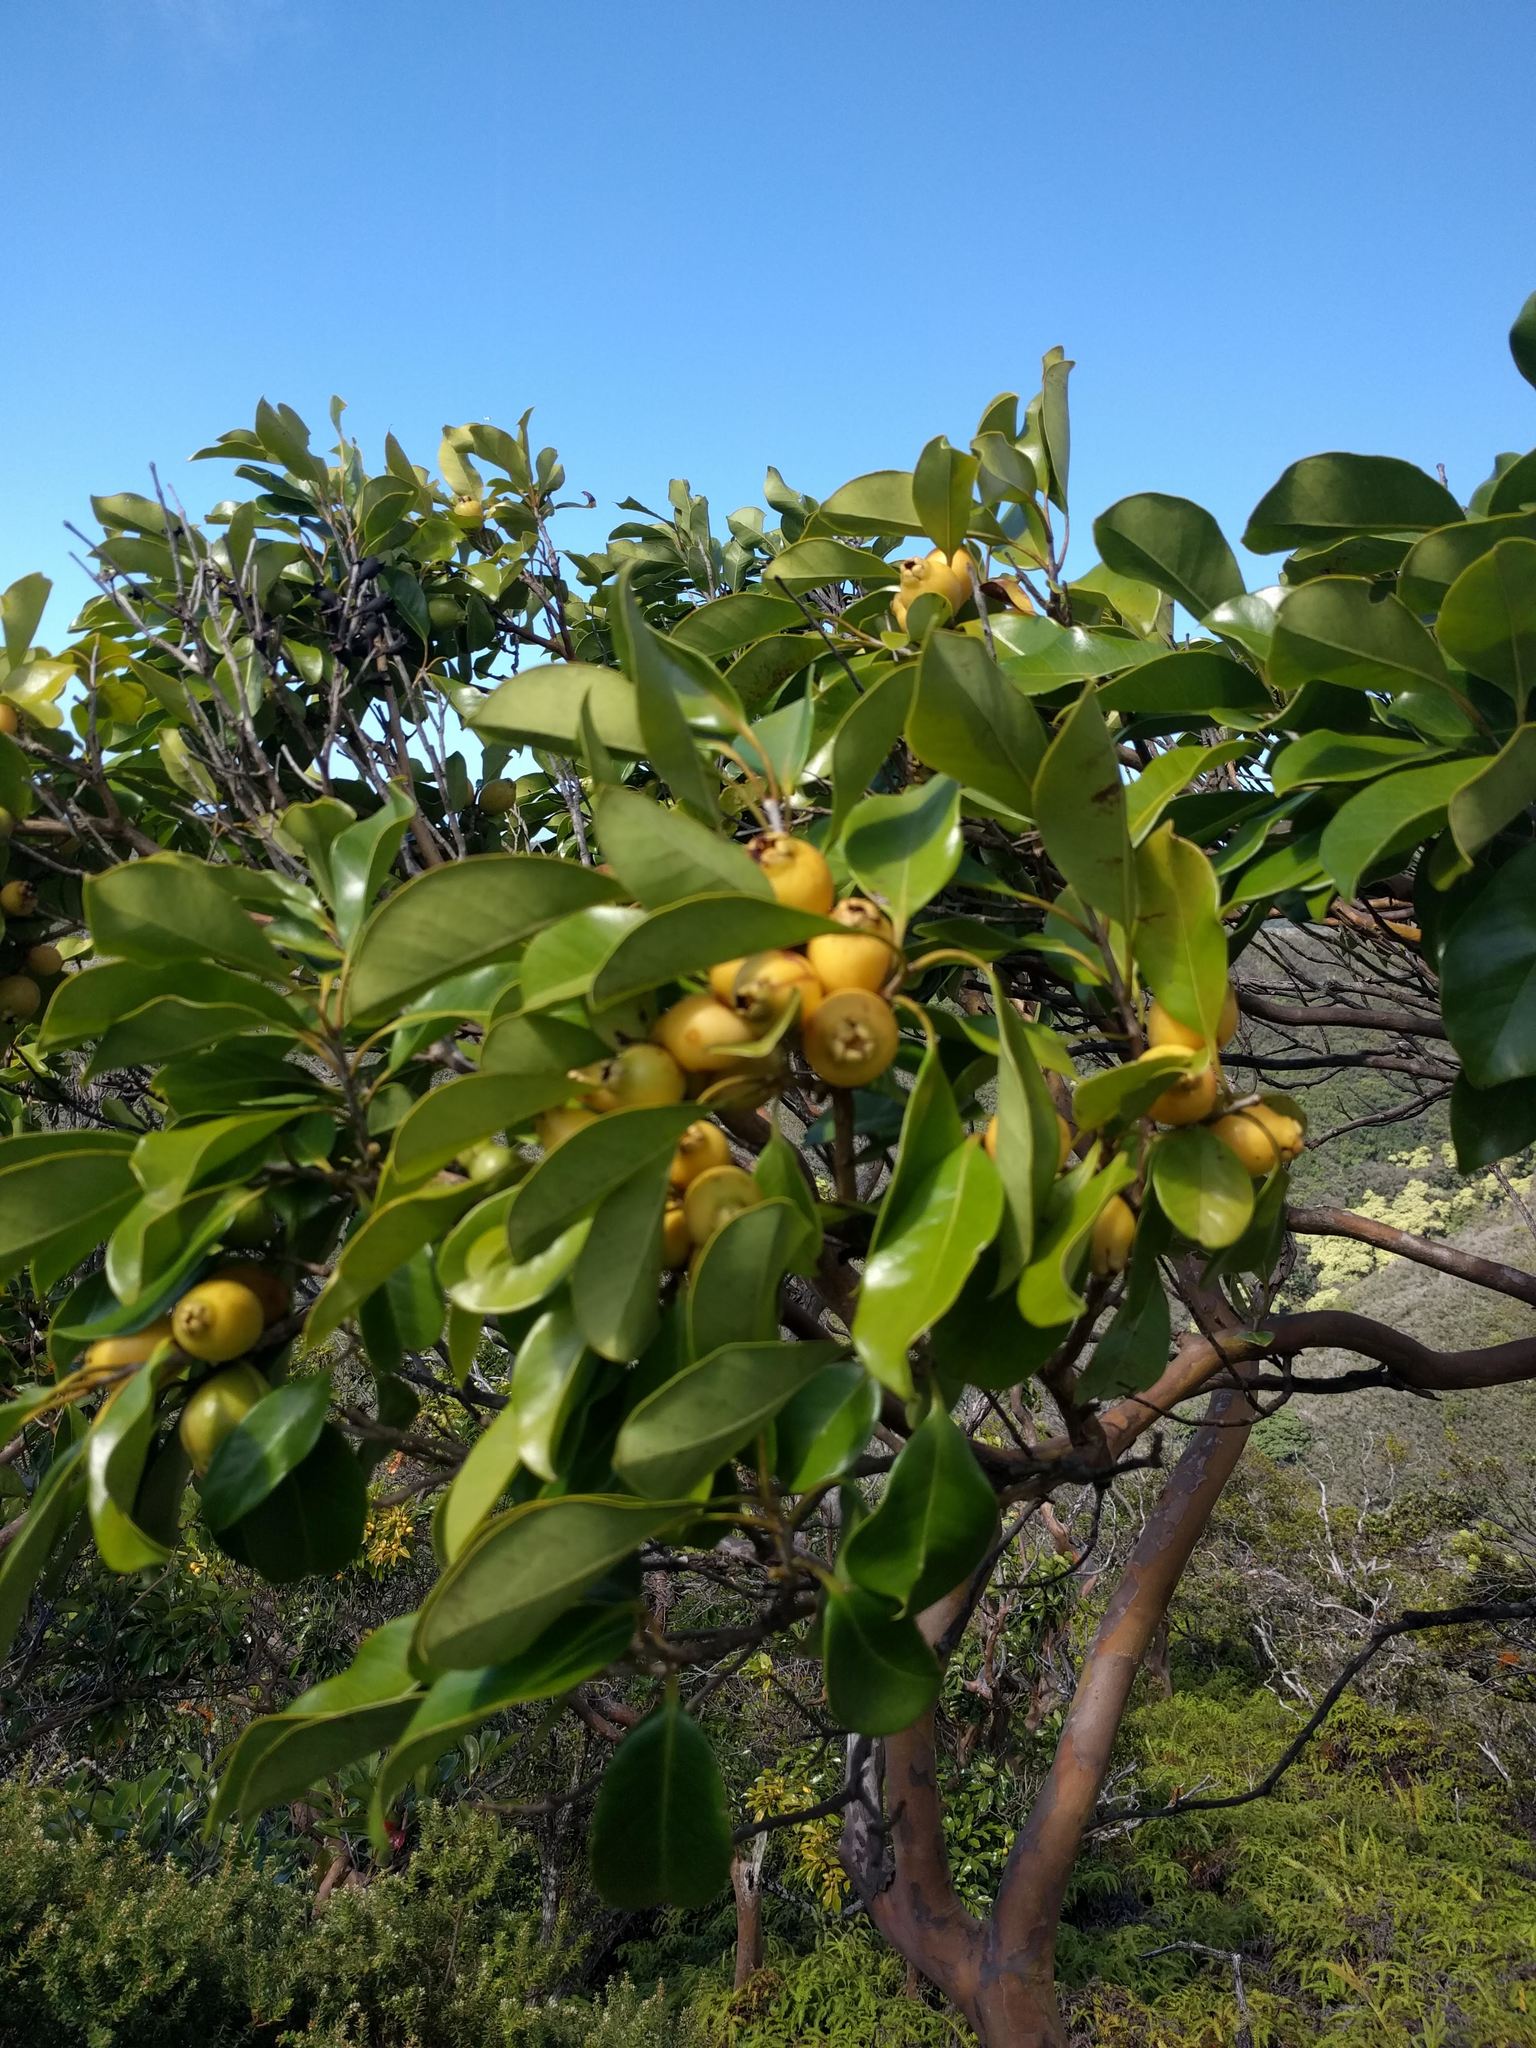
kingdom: Plantae
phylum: Tracheophyta
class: Magnoliopsida
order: Myrtales
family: Myrtaceae
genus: Psidium
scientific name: Psidium cattleianum
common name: Strawberry guava
